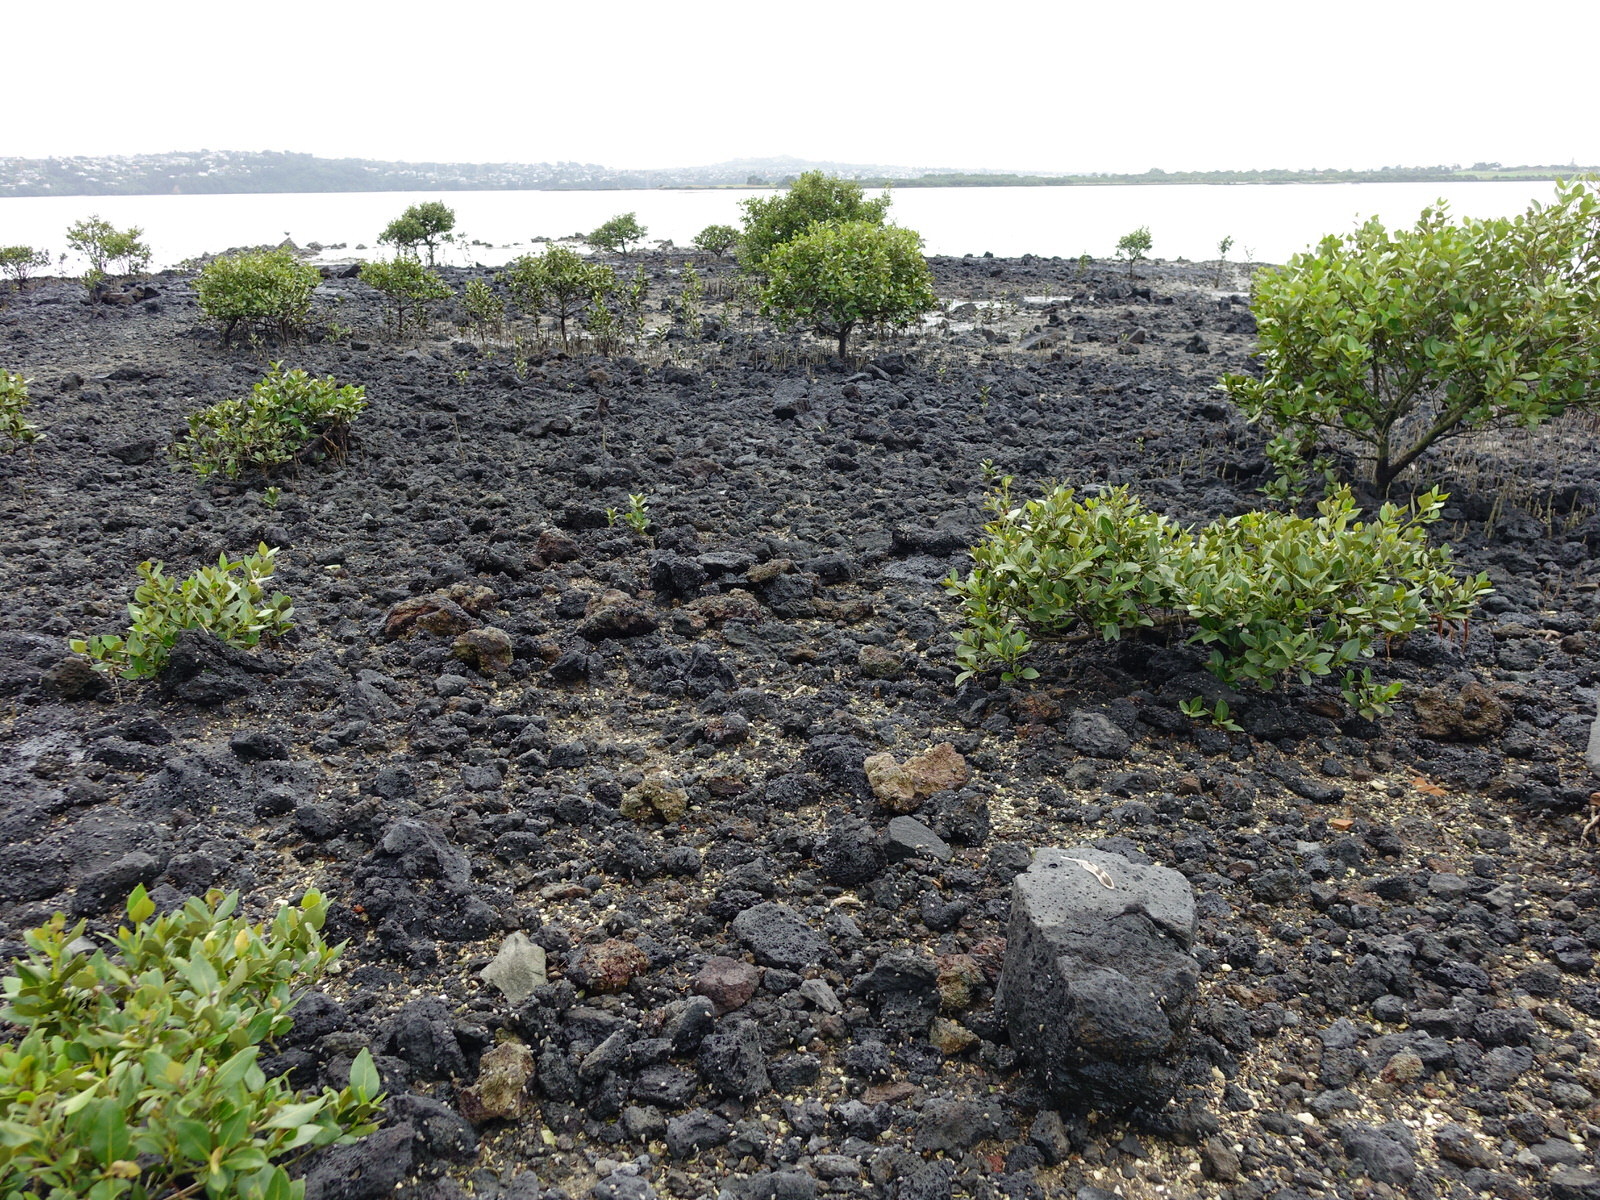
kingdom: Animalia
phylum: Chordata
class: Aves
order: Anseriformes
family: Anatidae
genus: Anas
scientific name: Anas platyrhynchos
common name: Mallard
